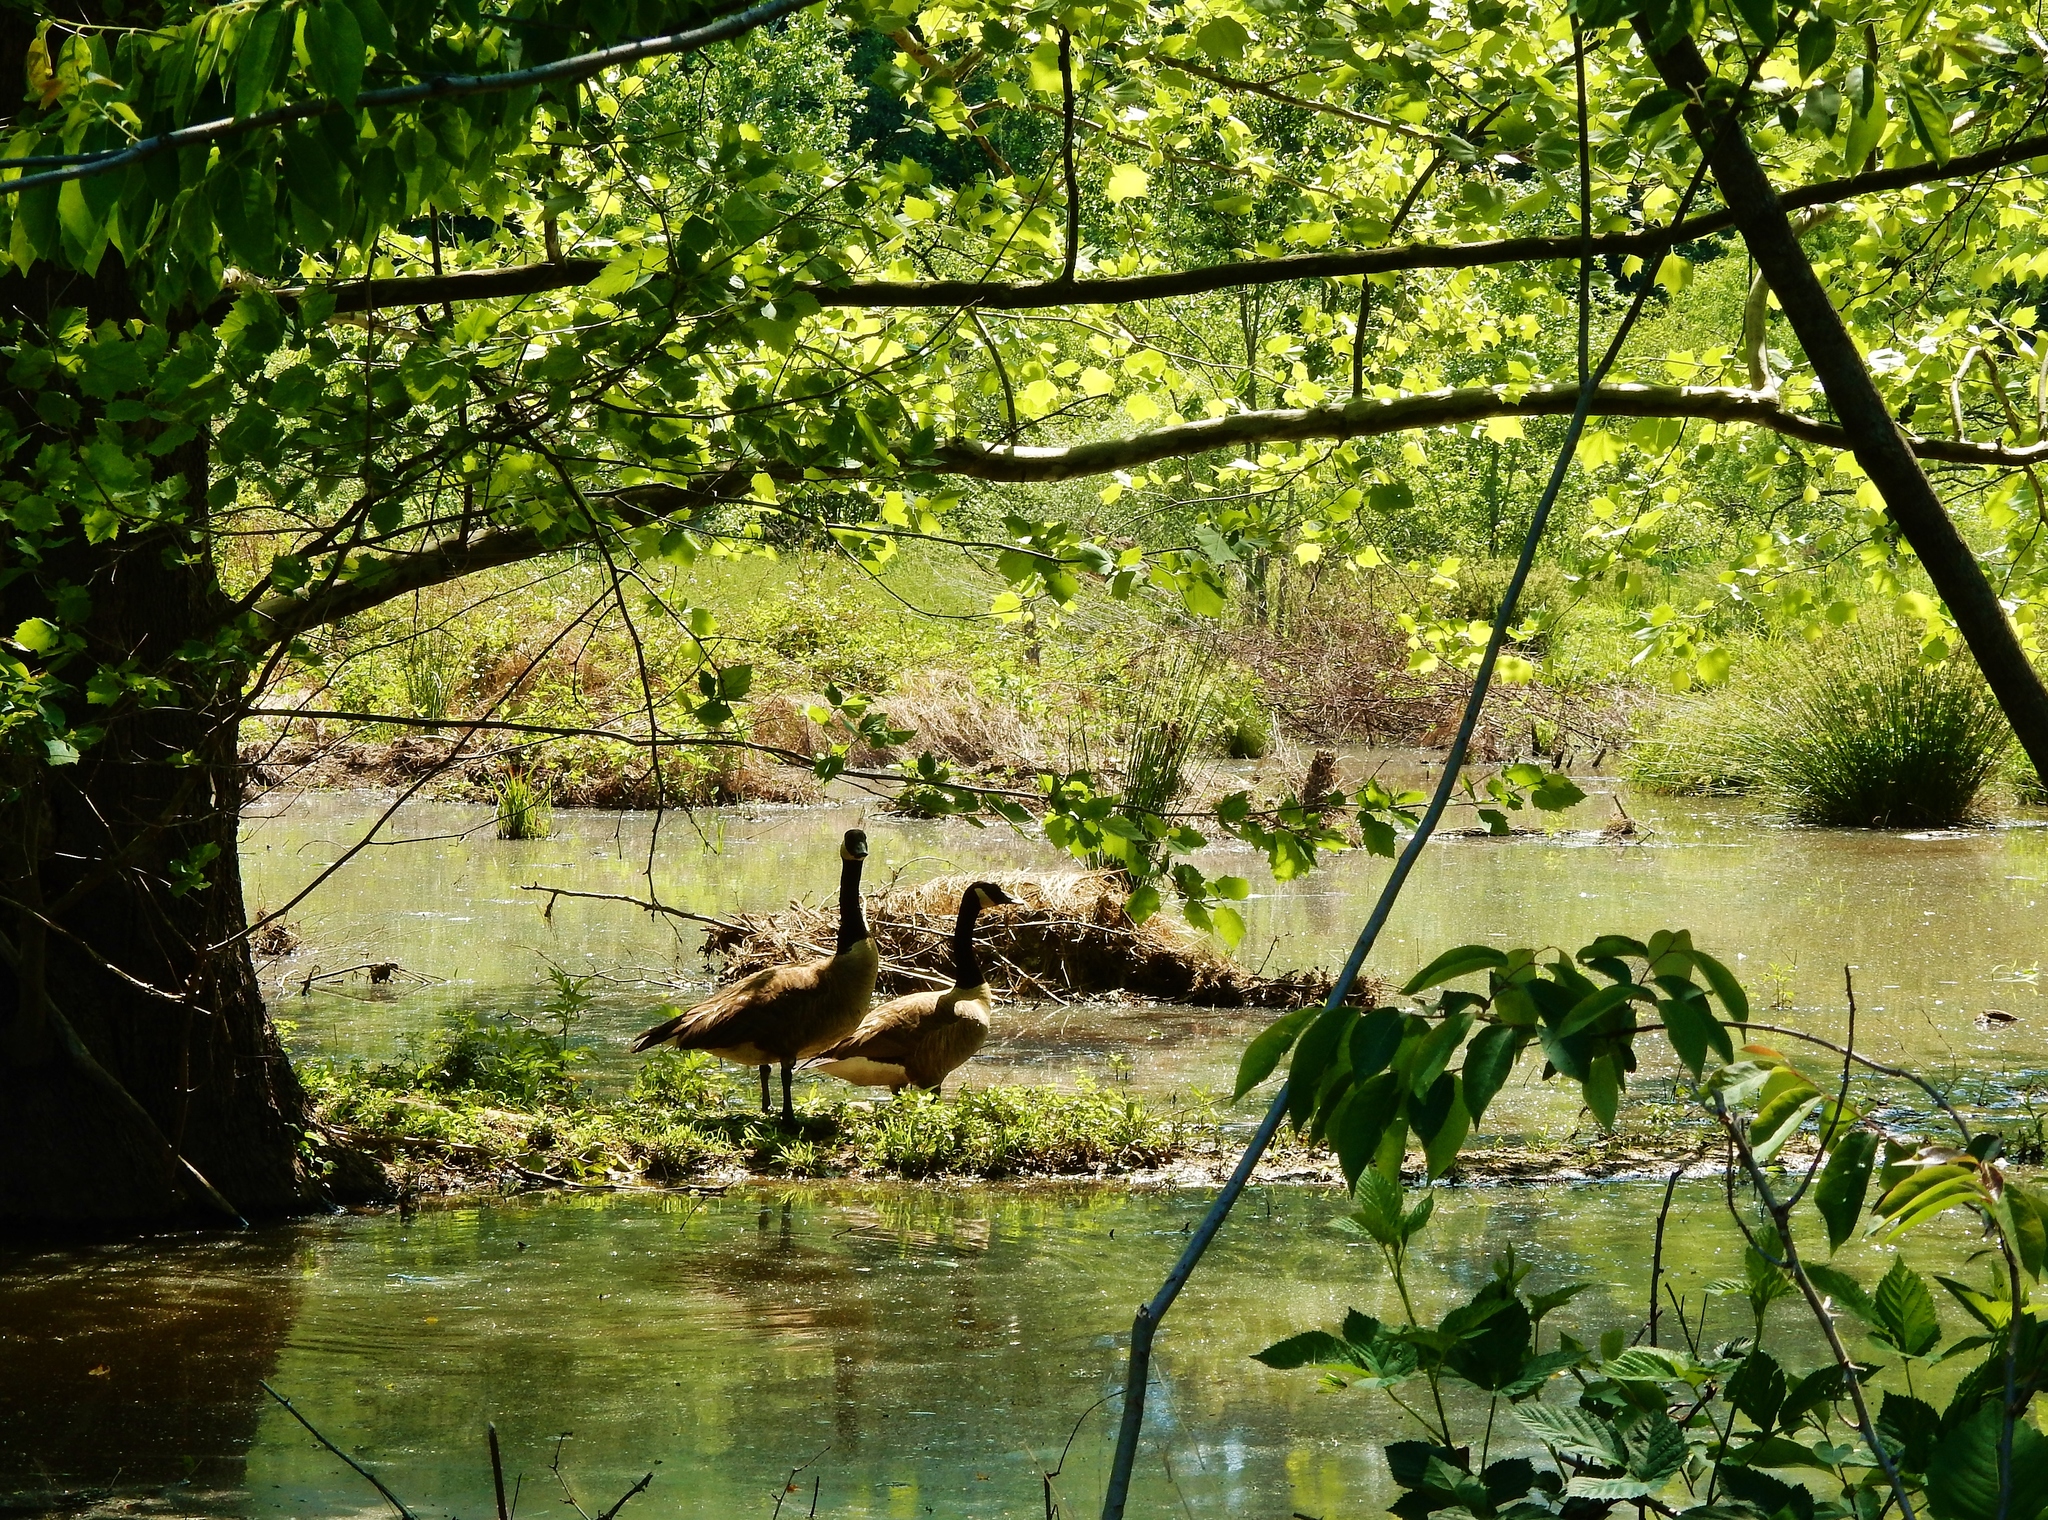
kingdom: Animalia
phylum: Chordata
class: Aves
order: Anseriformes
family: Anatidae
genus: Branta
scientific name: Branta canadensis
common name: Canada goose
